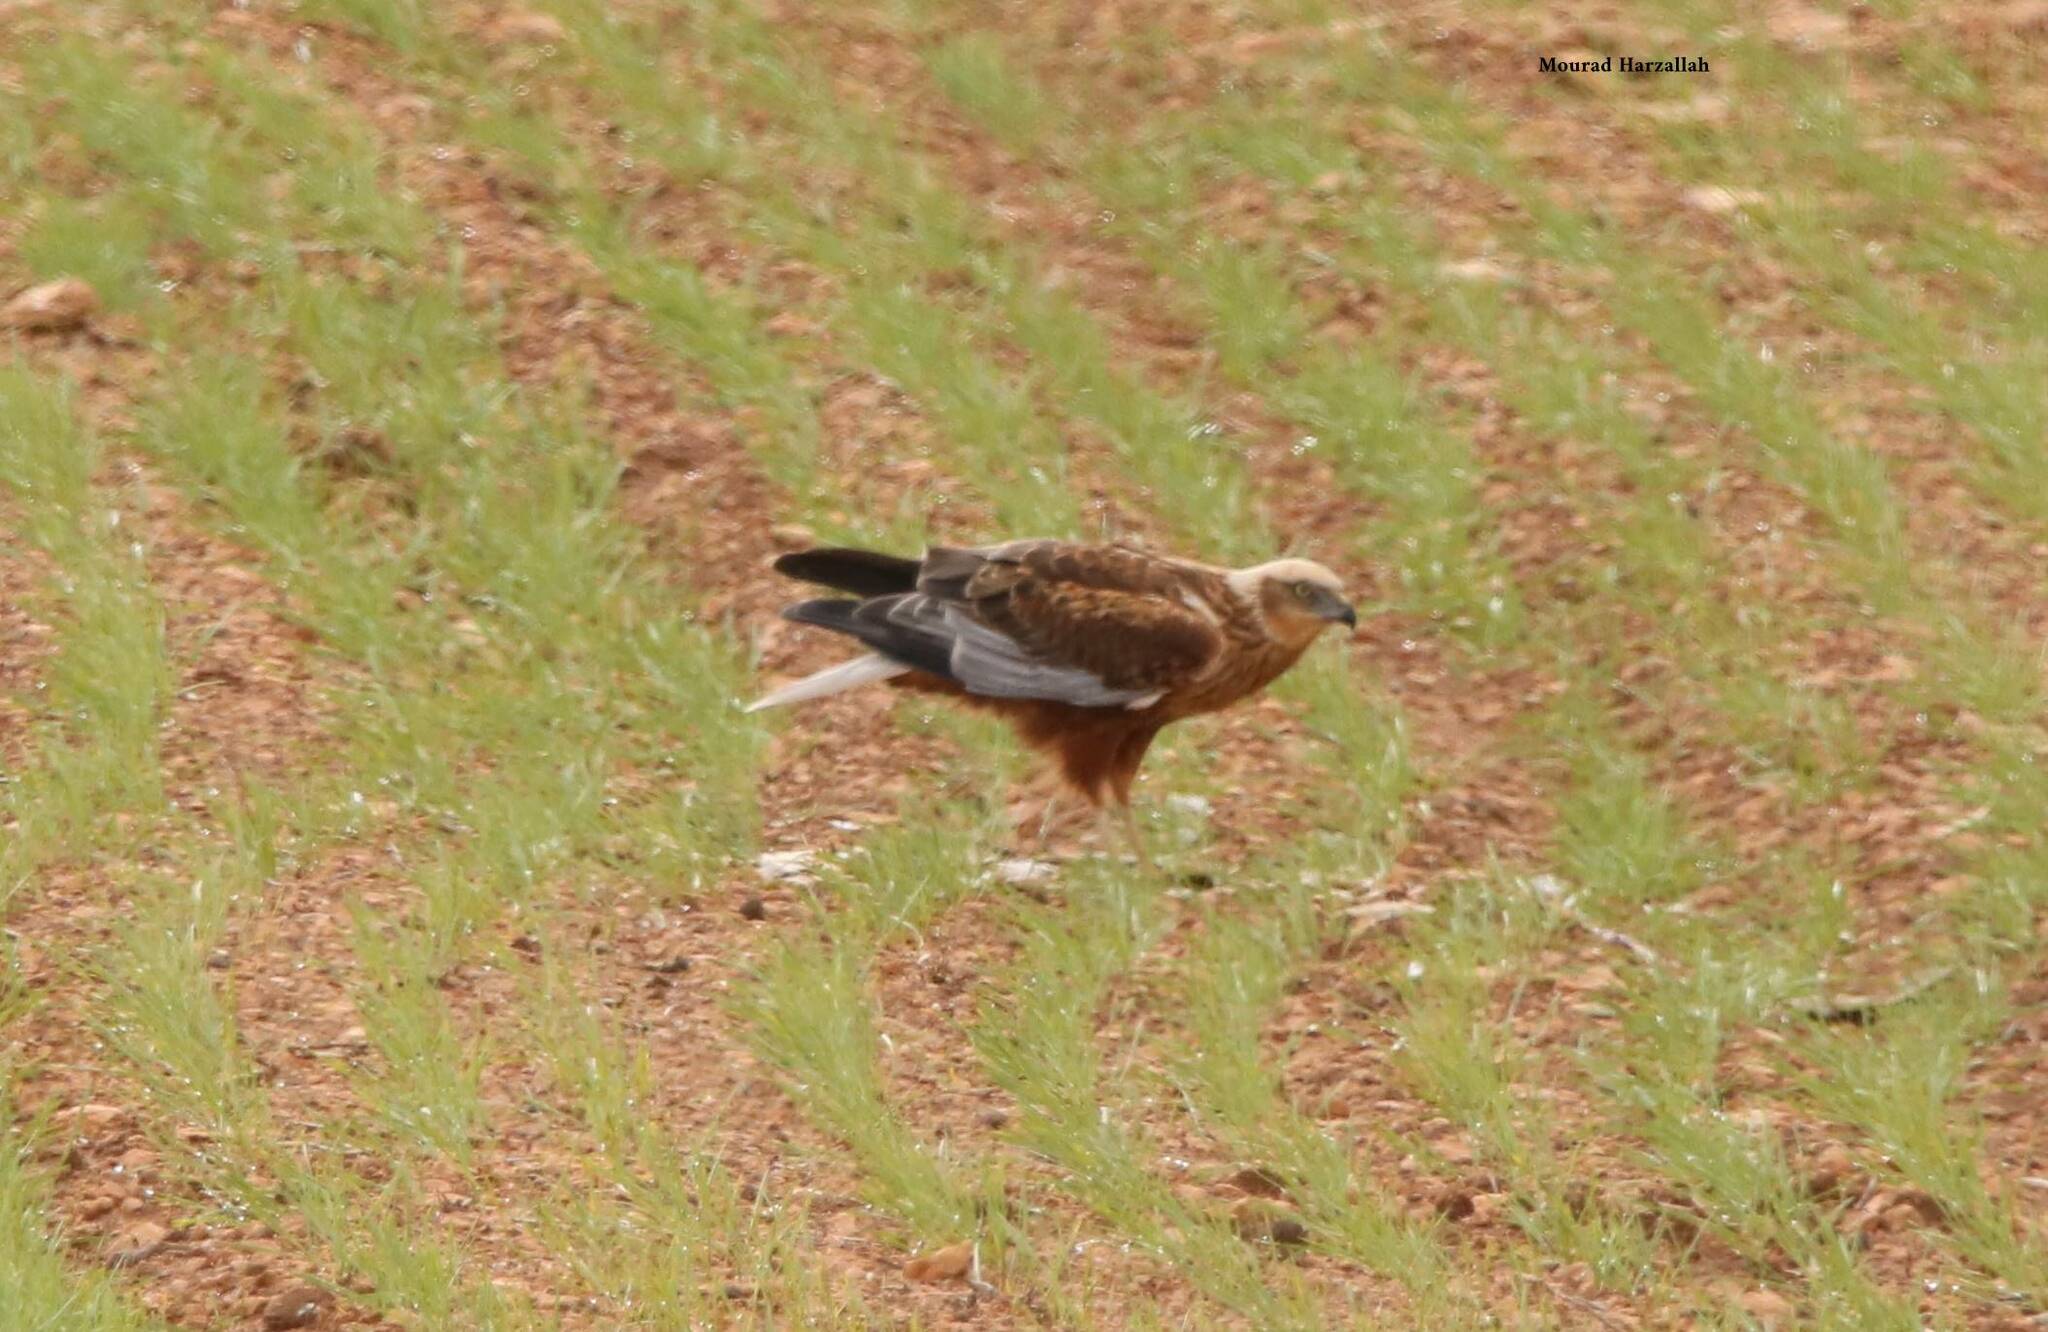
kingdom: Animalia
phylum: Chordata
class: Aves
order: Accipitriformes
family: Accipitridae
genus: Circus
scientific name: Circus aeruginosus
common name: Western marsh harrier
